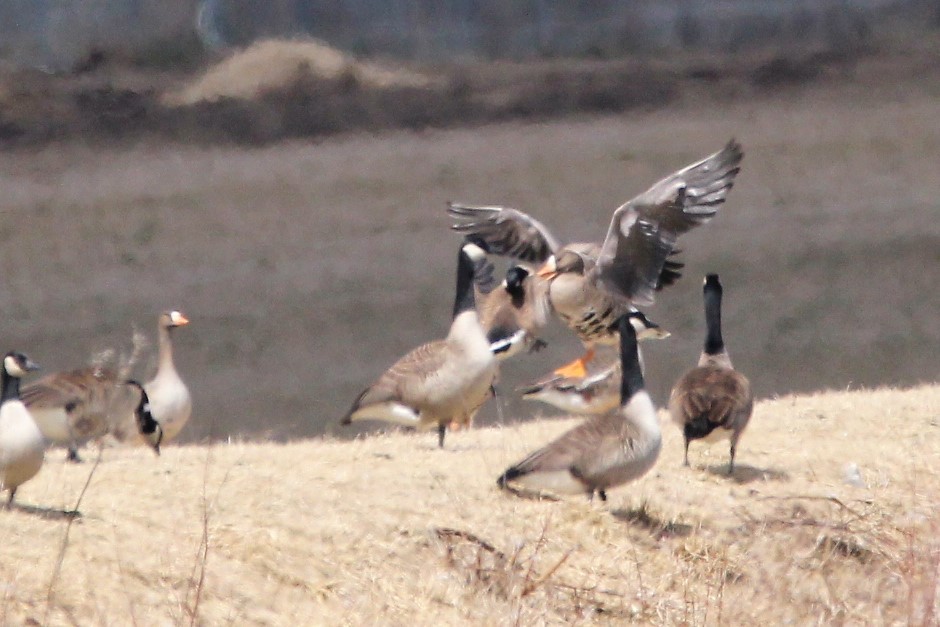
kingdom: Animalia
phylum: Chordata
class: Aves
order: Anseriformes
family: Anatidae
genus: Anser
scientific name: Anser albifrons
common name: Greater white-fronted goose
